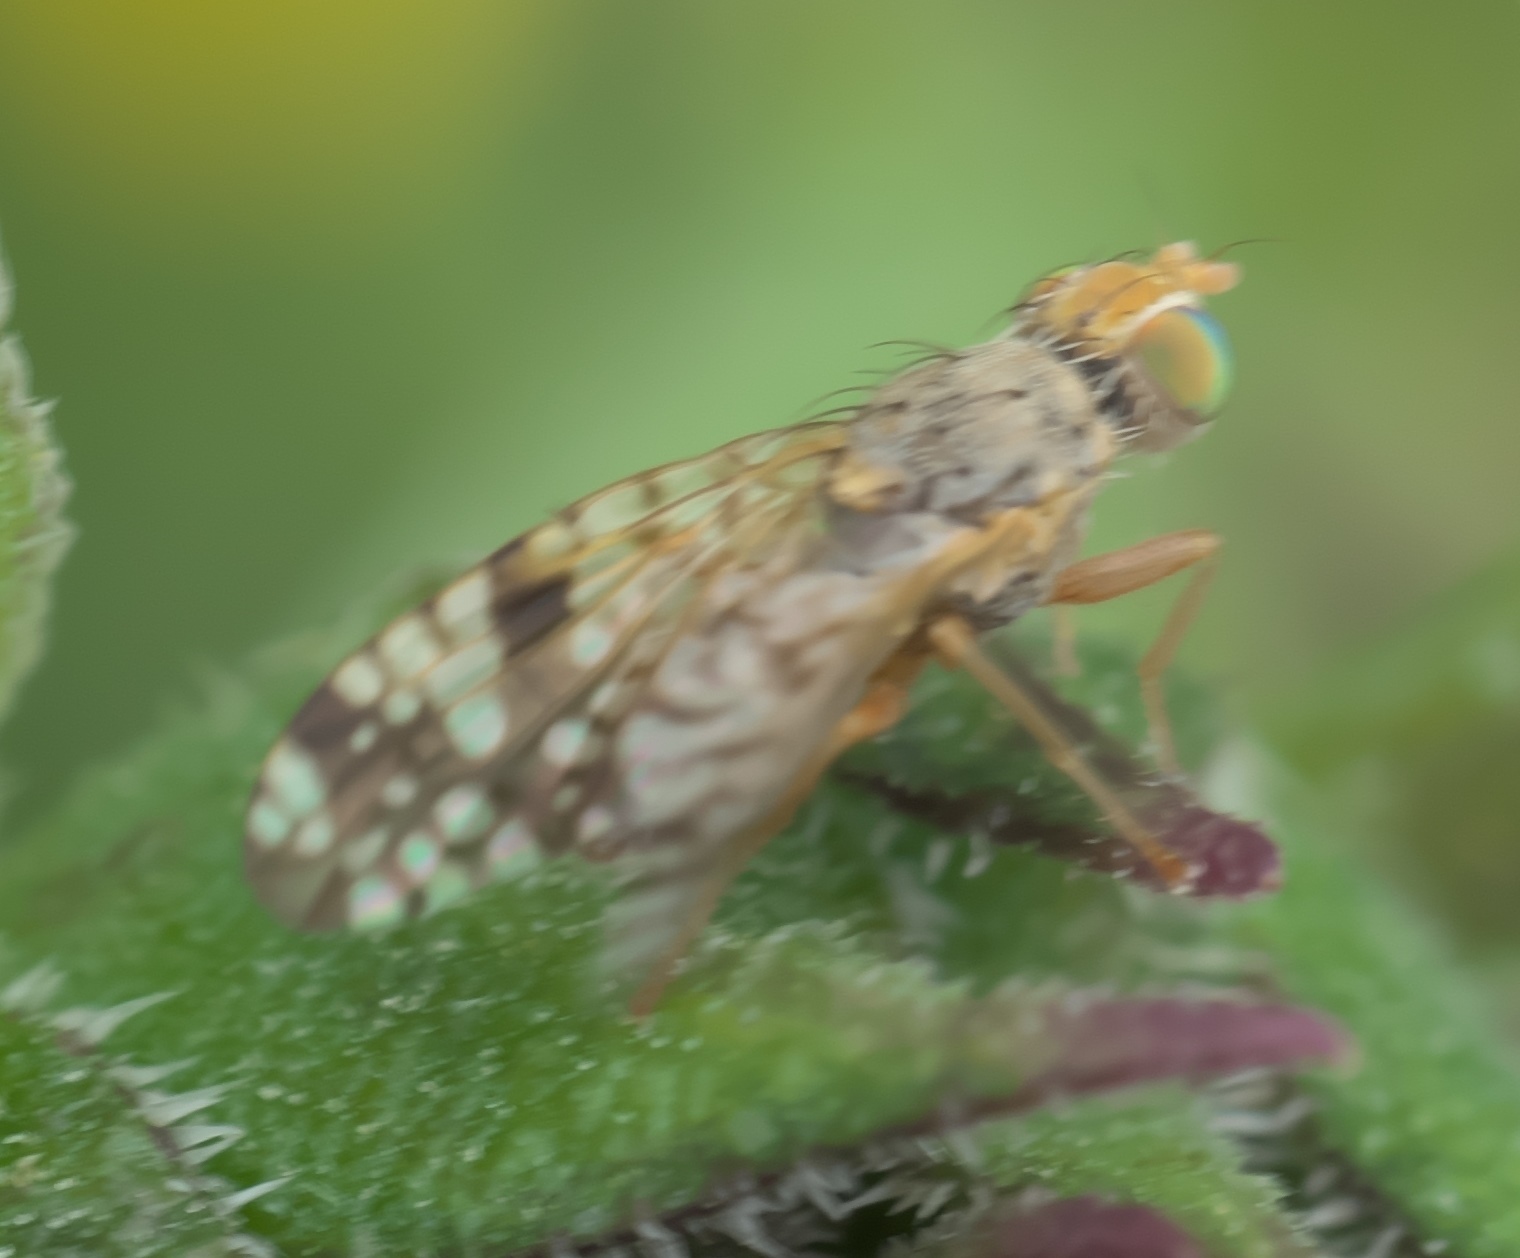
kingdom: Animalia
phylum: Arthropoda
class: Insecta
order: Diptera
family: Tephritidae
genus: Neotephritis
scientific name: Neotephritis finalis
